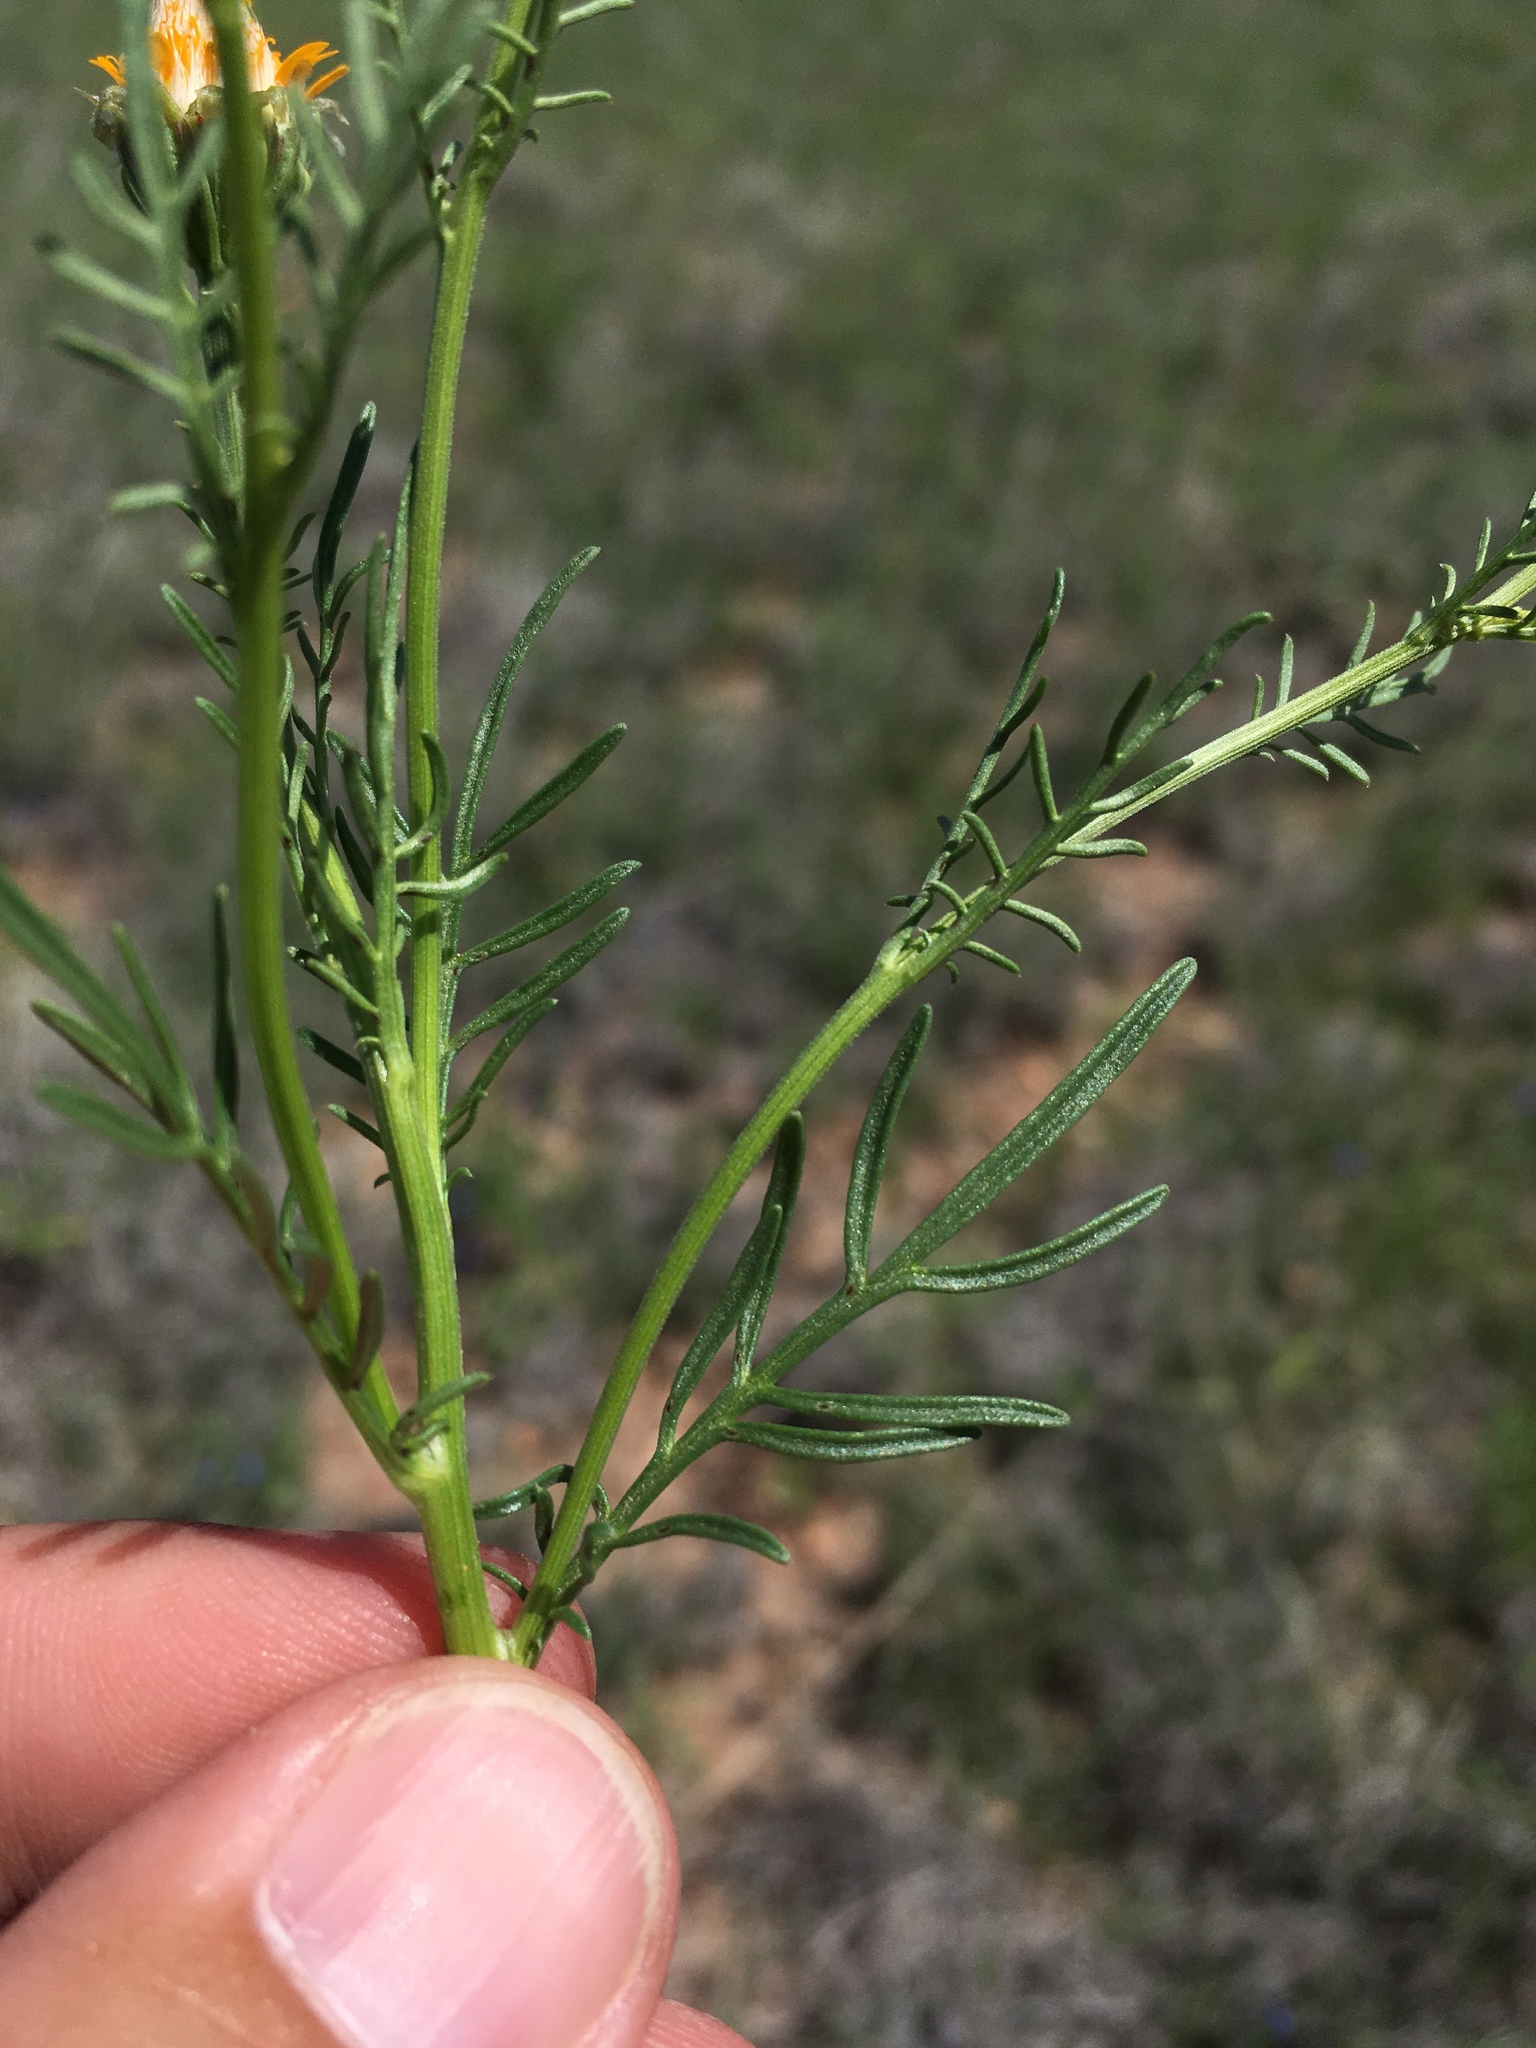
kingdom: Plantae
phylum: Tracheophyta
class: Magnoliopsida
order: Asterales
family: Asteraceae
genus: Adenophyllum
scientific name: Adenophyllum wrightii
